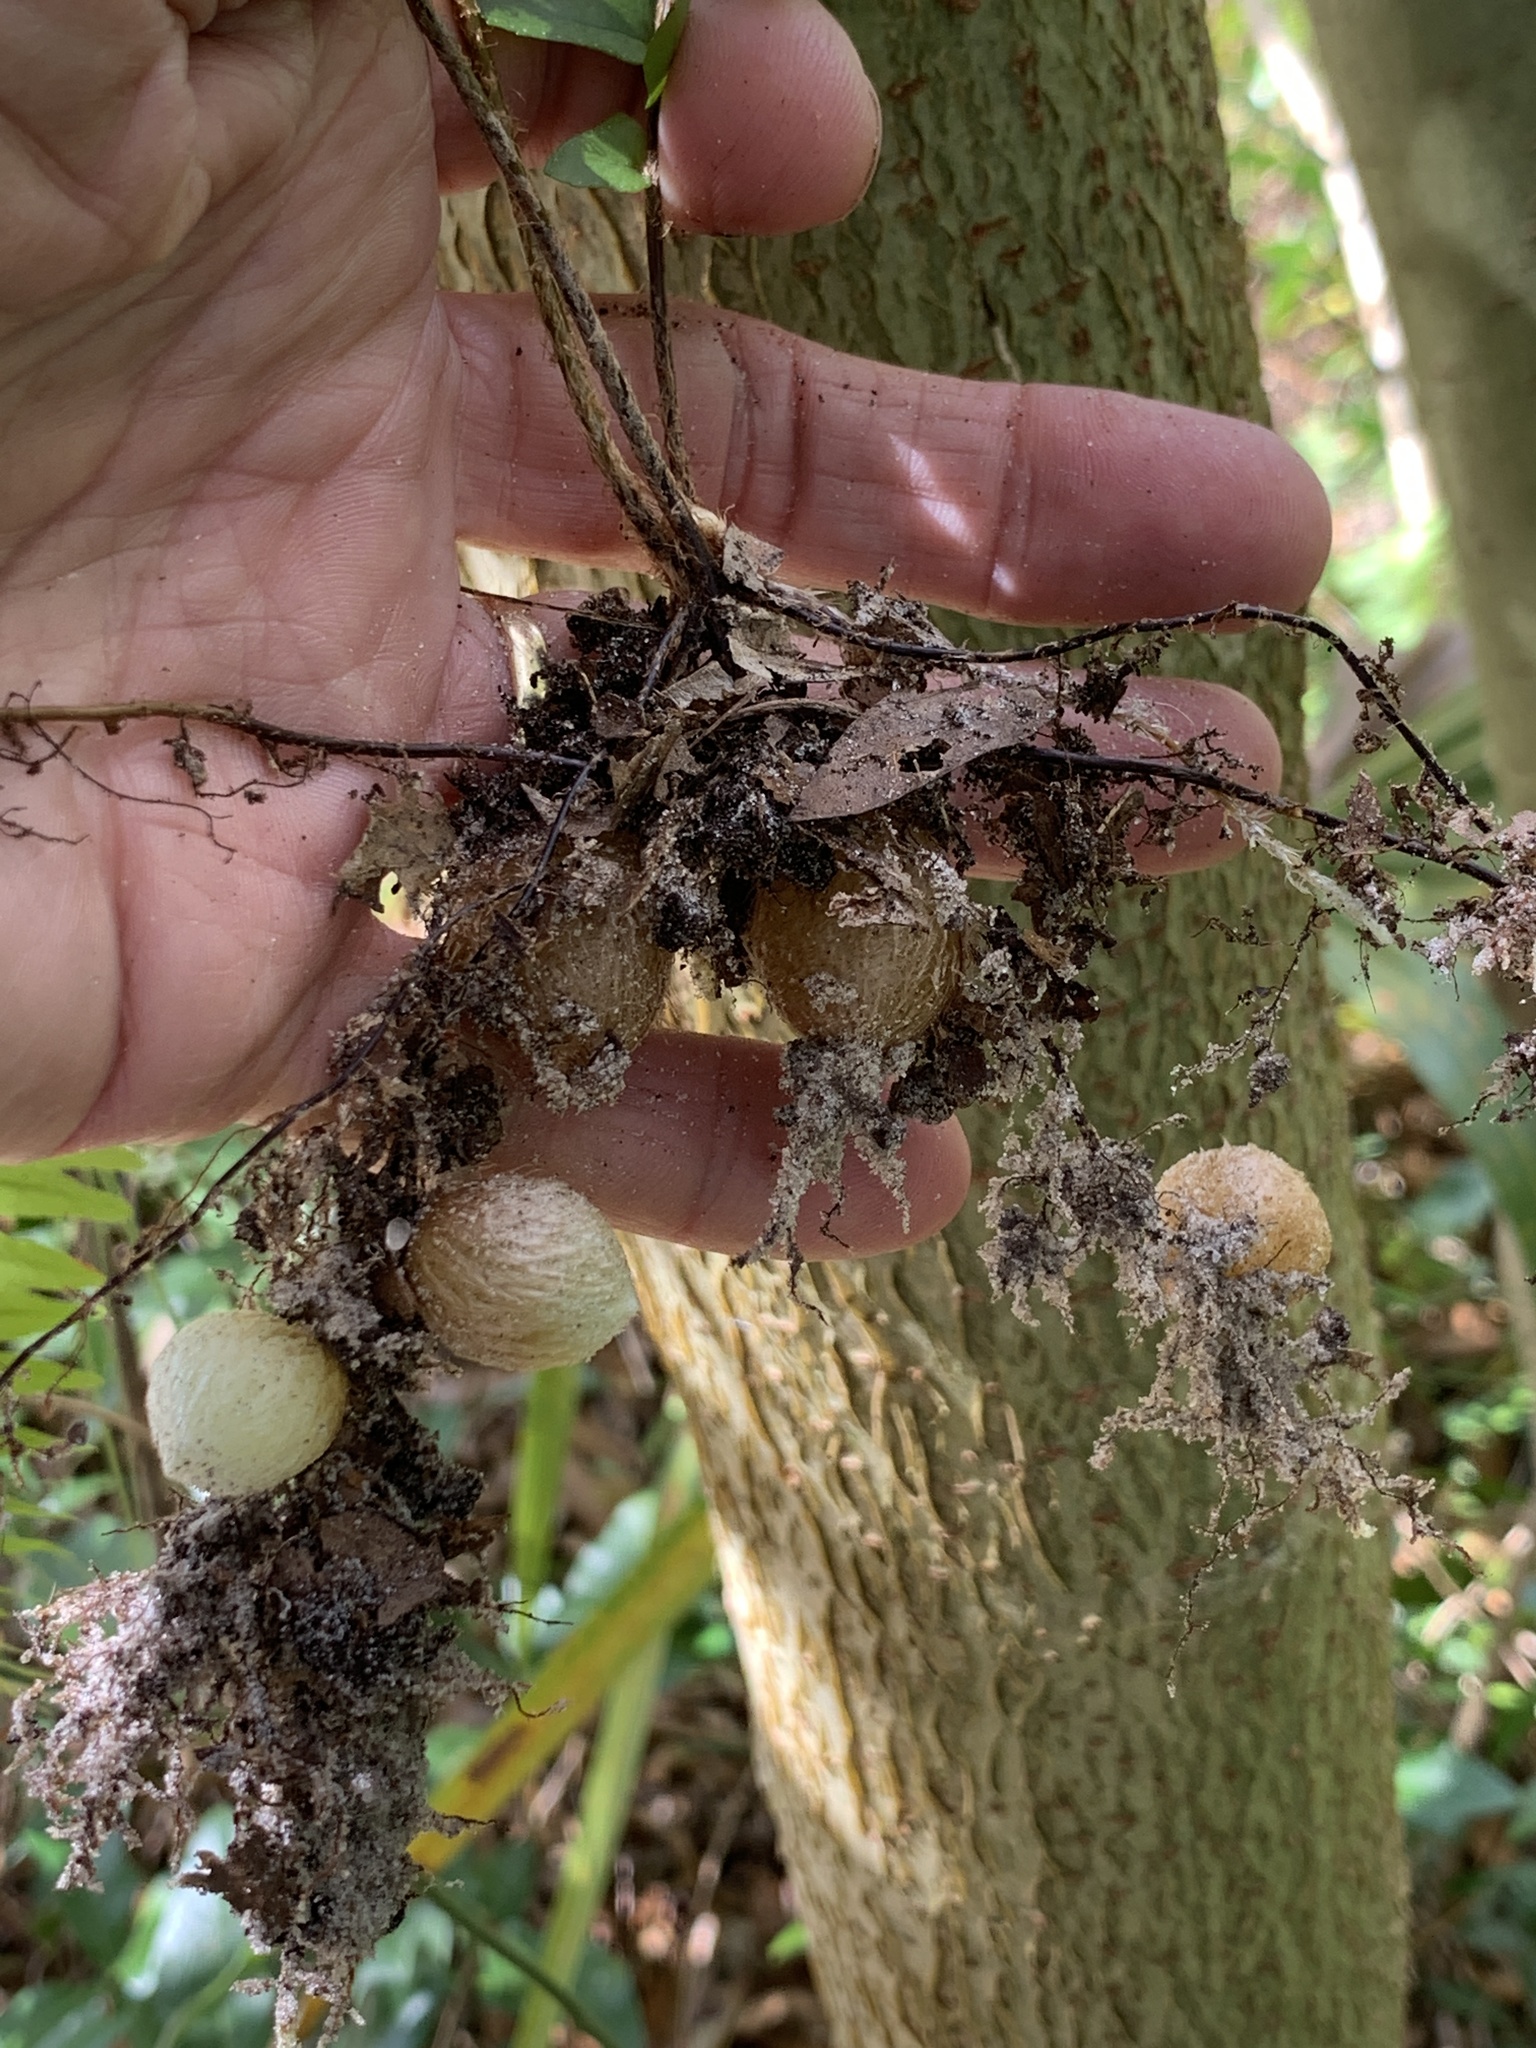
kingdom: Plantae
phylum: Tracheophyta
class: Polypodiopsida
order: Polypodiales
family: Nephrolepidaceae
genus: Nephrolepis
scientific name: Nephrolepis cordifolia
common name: Narrow swordfern
